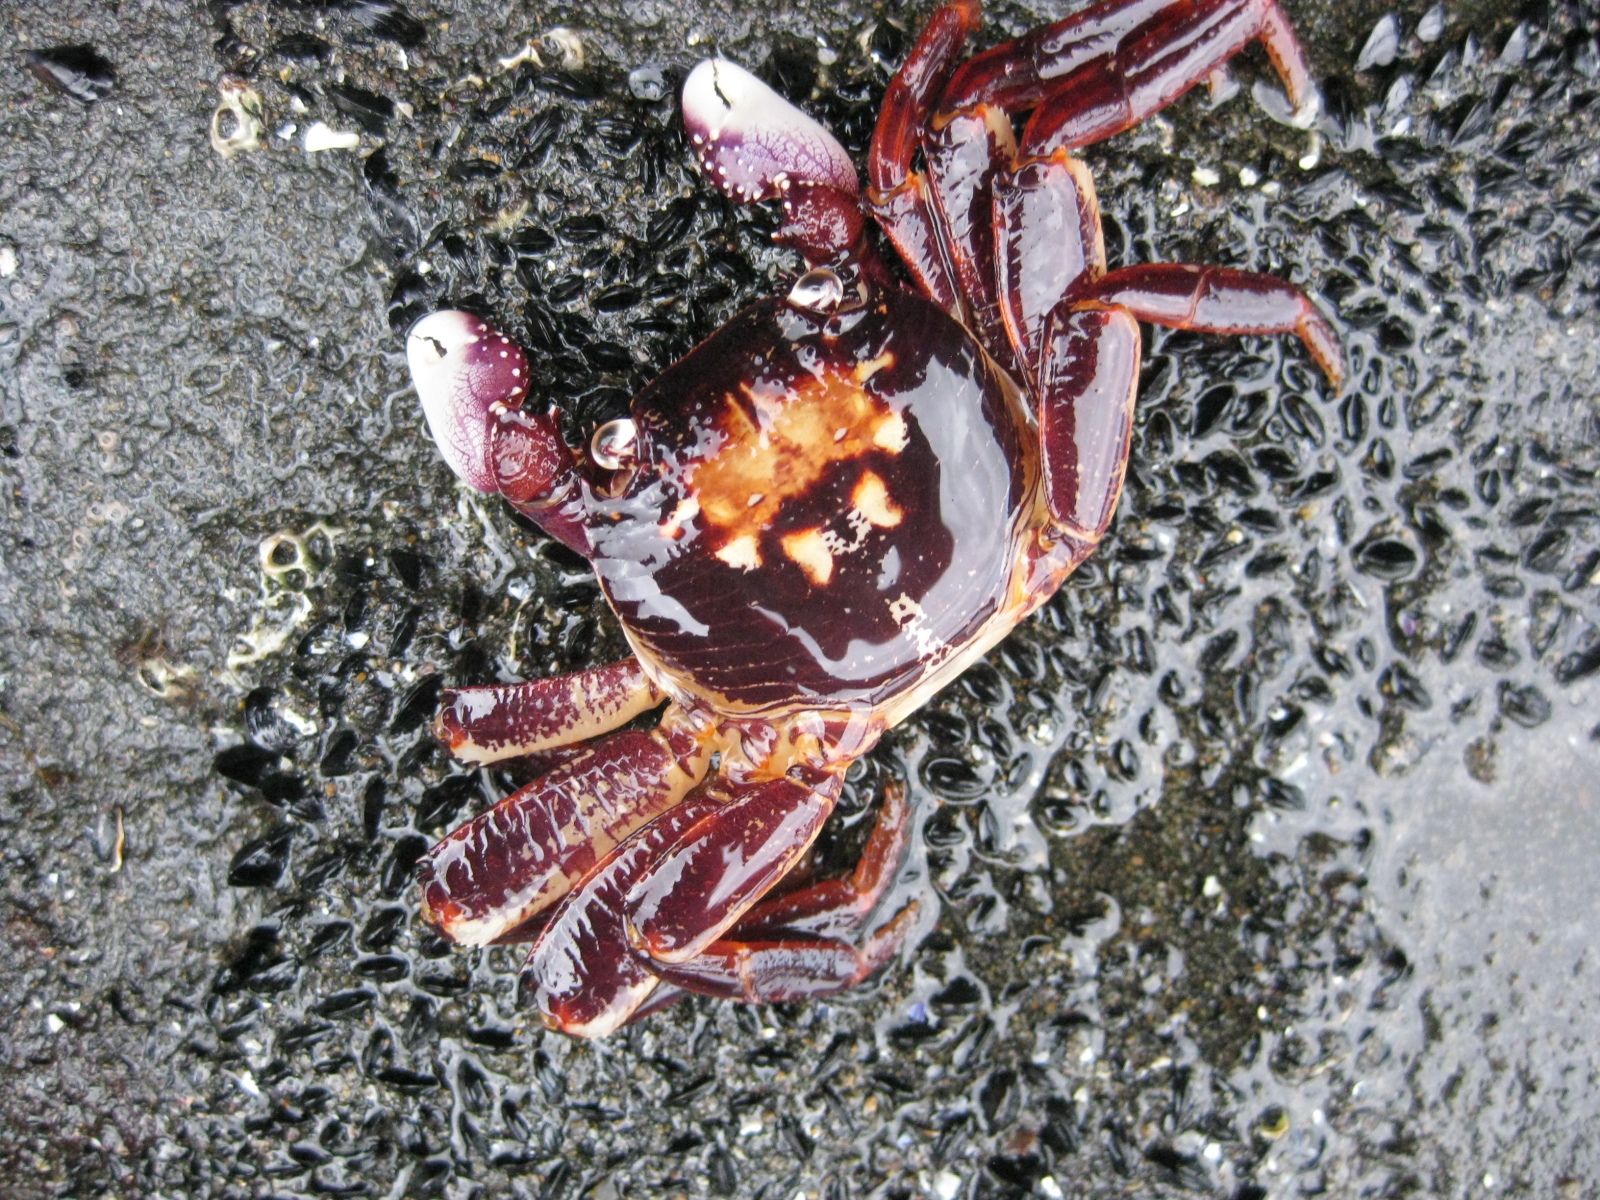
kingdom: Animalia
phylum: Arthropoda
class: Malacostraca
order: Decapoda
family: Grapsidae
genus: Leptograpsus
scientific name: Leptograpsus variegatus
